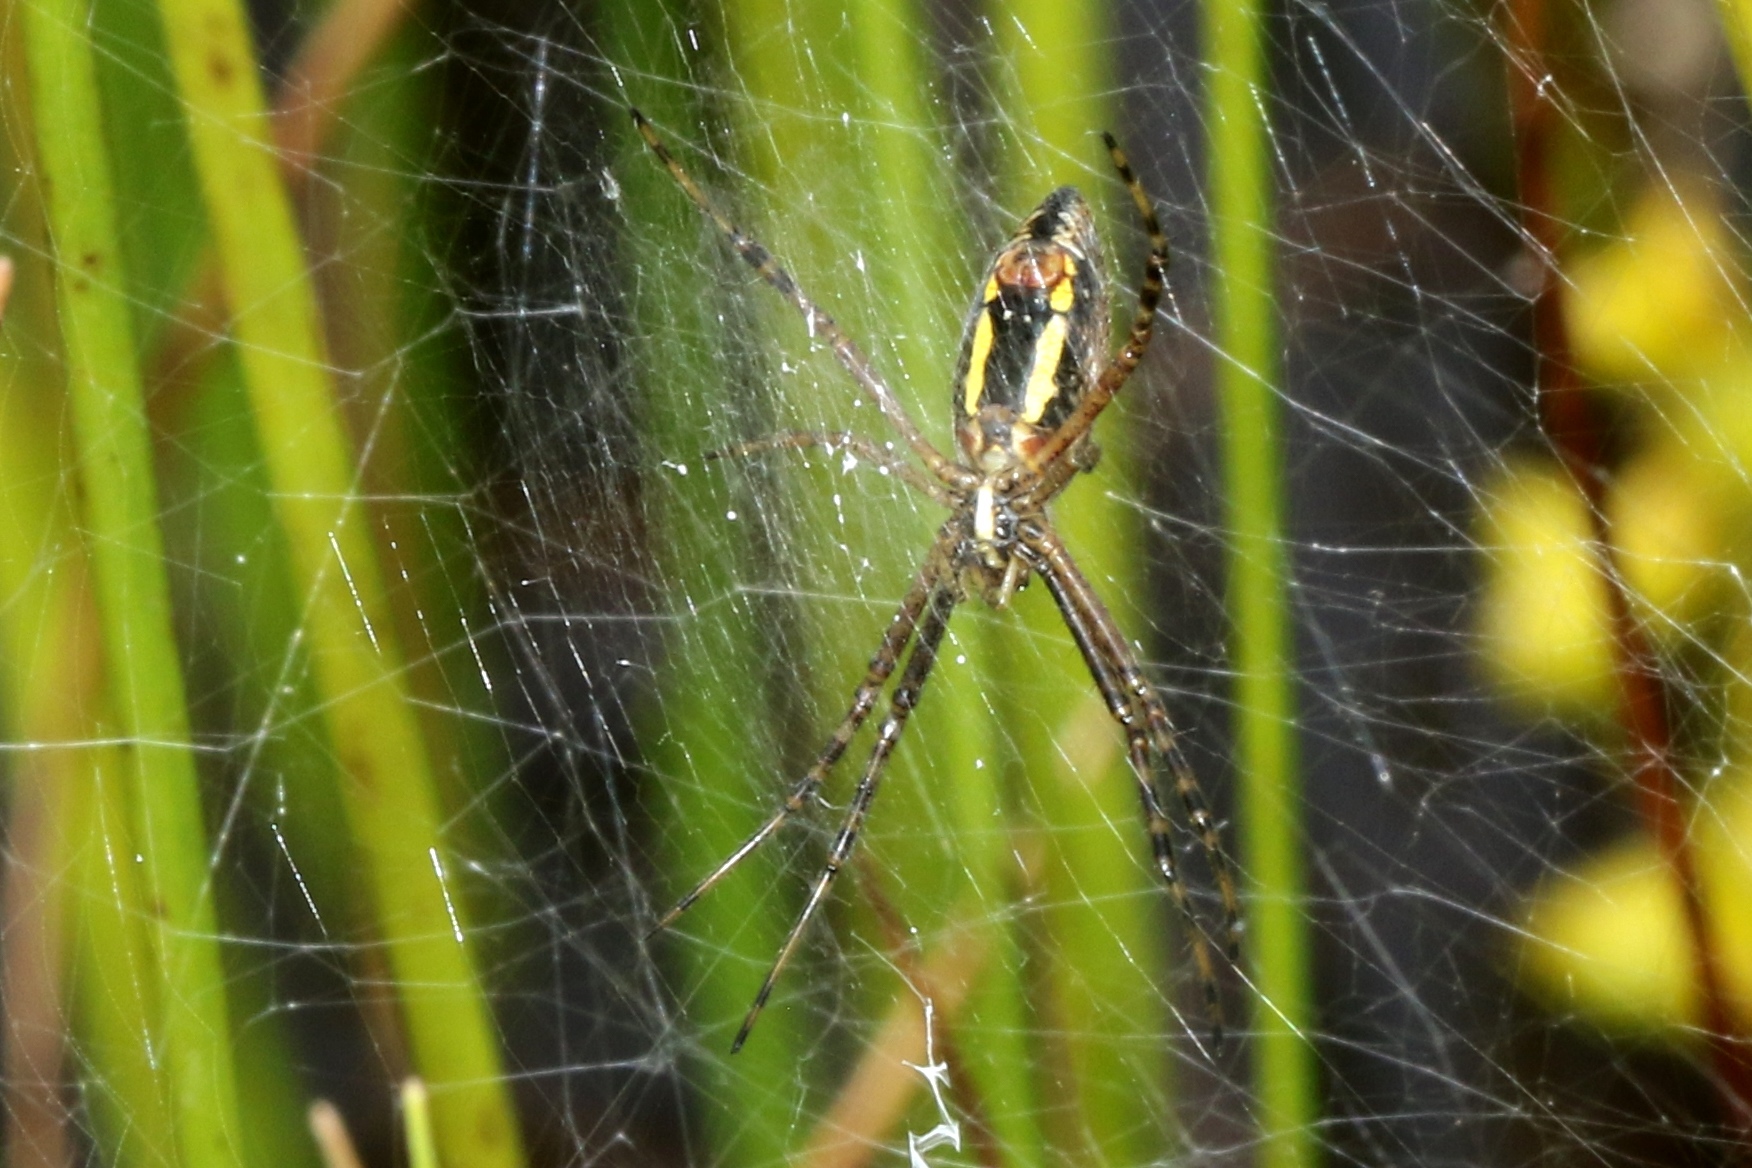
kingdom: Animalia
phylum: Arthropoda
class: Arachnida
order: Araneae
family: Araneidae
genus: Argiope
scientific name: Argiope trifasciata
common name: Banded garden spider
